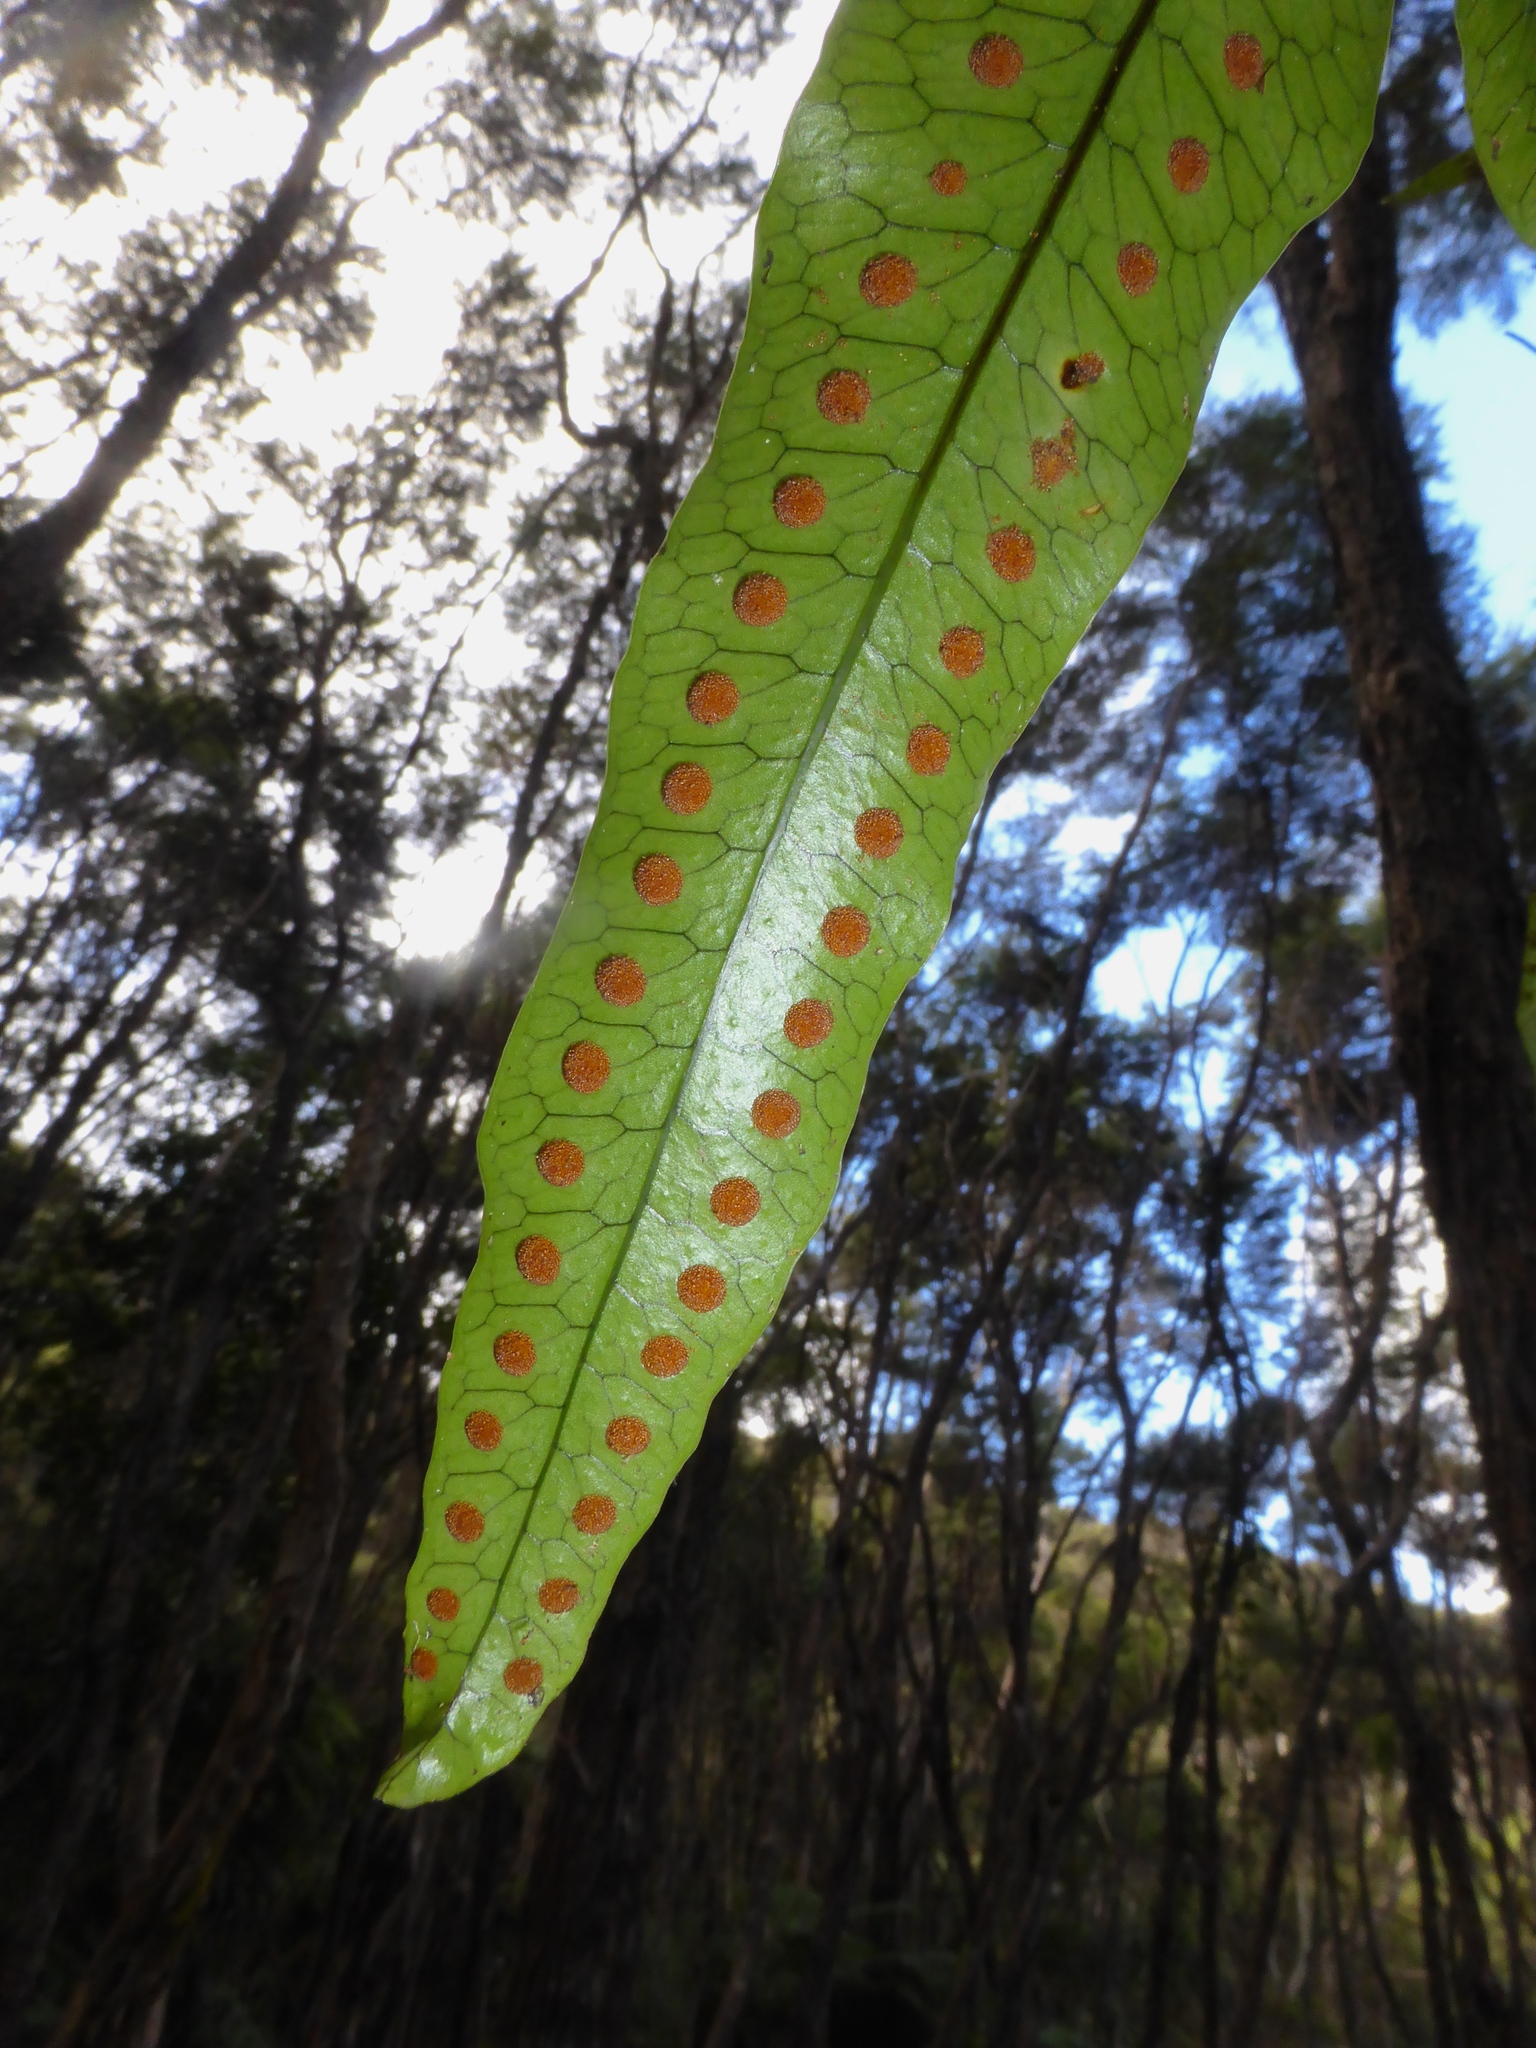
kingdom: Plantae
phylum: Tracheophyta
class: Polypodiopsida
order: Polypodiales
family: Polypodiaceae
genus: Lecanopteris
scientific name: Lecanopteris pustulata
